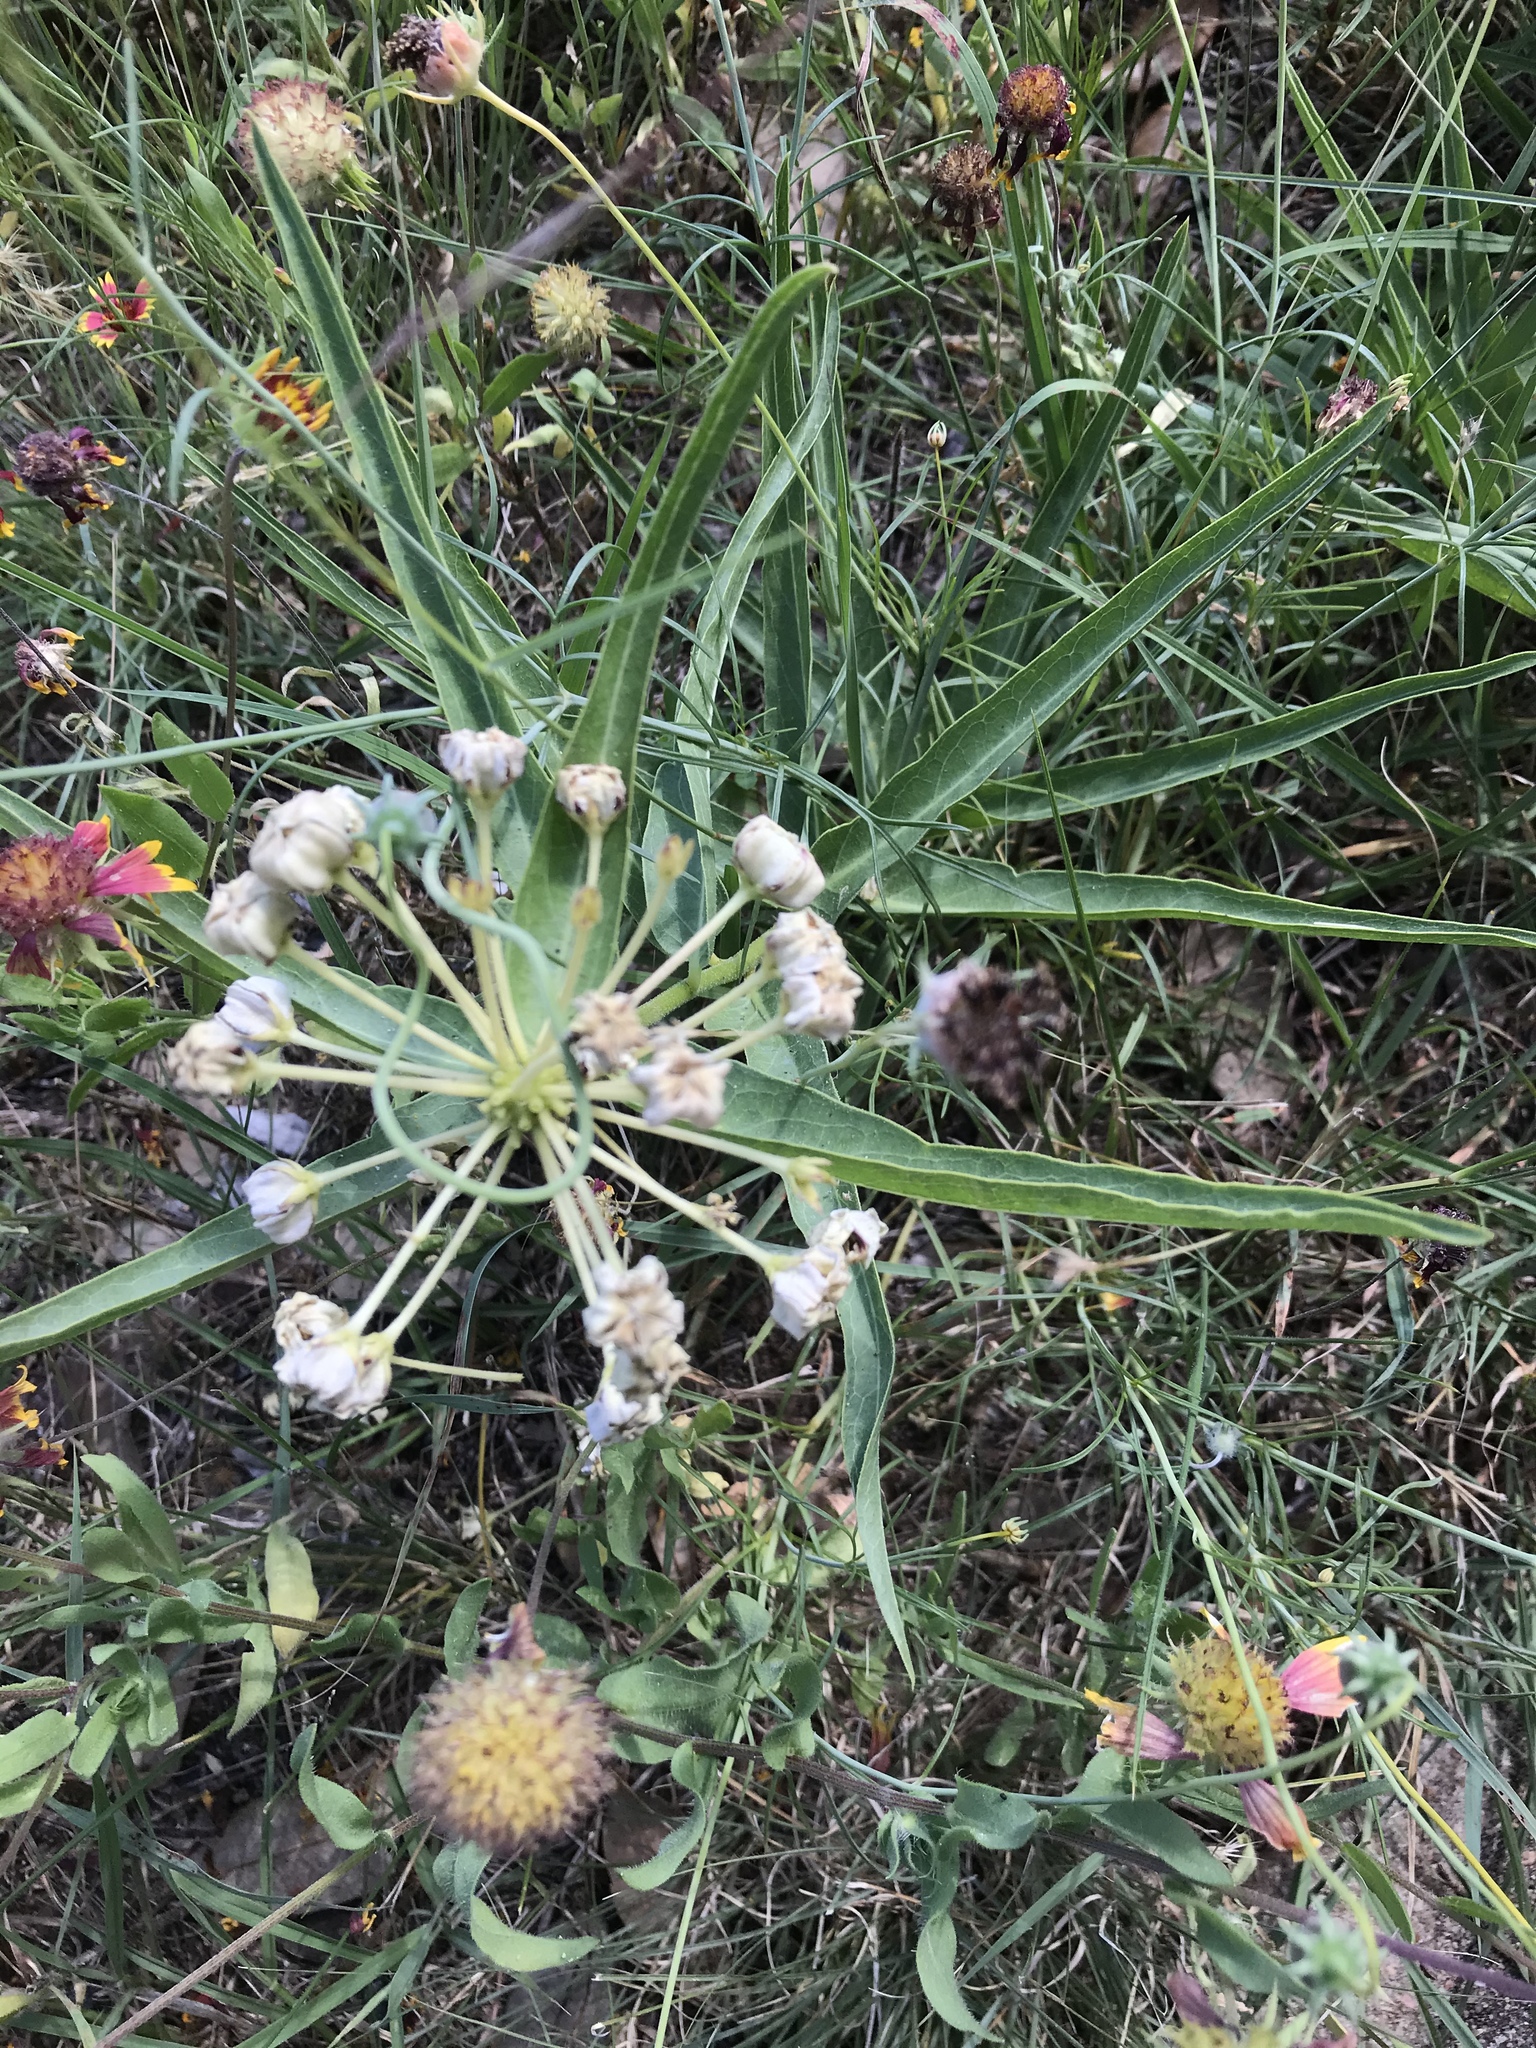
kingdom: Plantae
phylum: Tracheophyta
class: Magnoliopsida
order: Gentianales
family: Apocynaceae
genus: Asclepias
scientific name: Asclepias asperula
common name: Antelope horns
